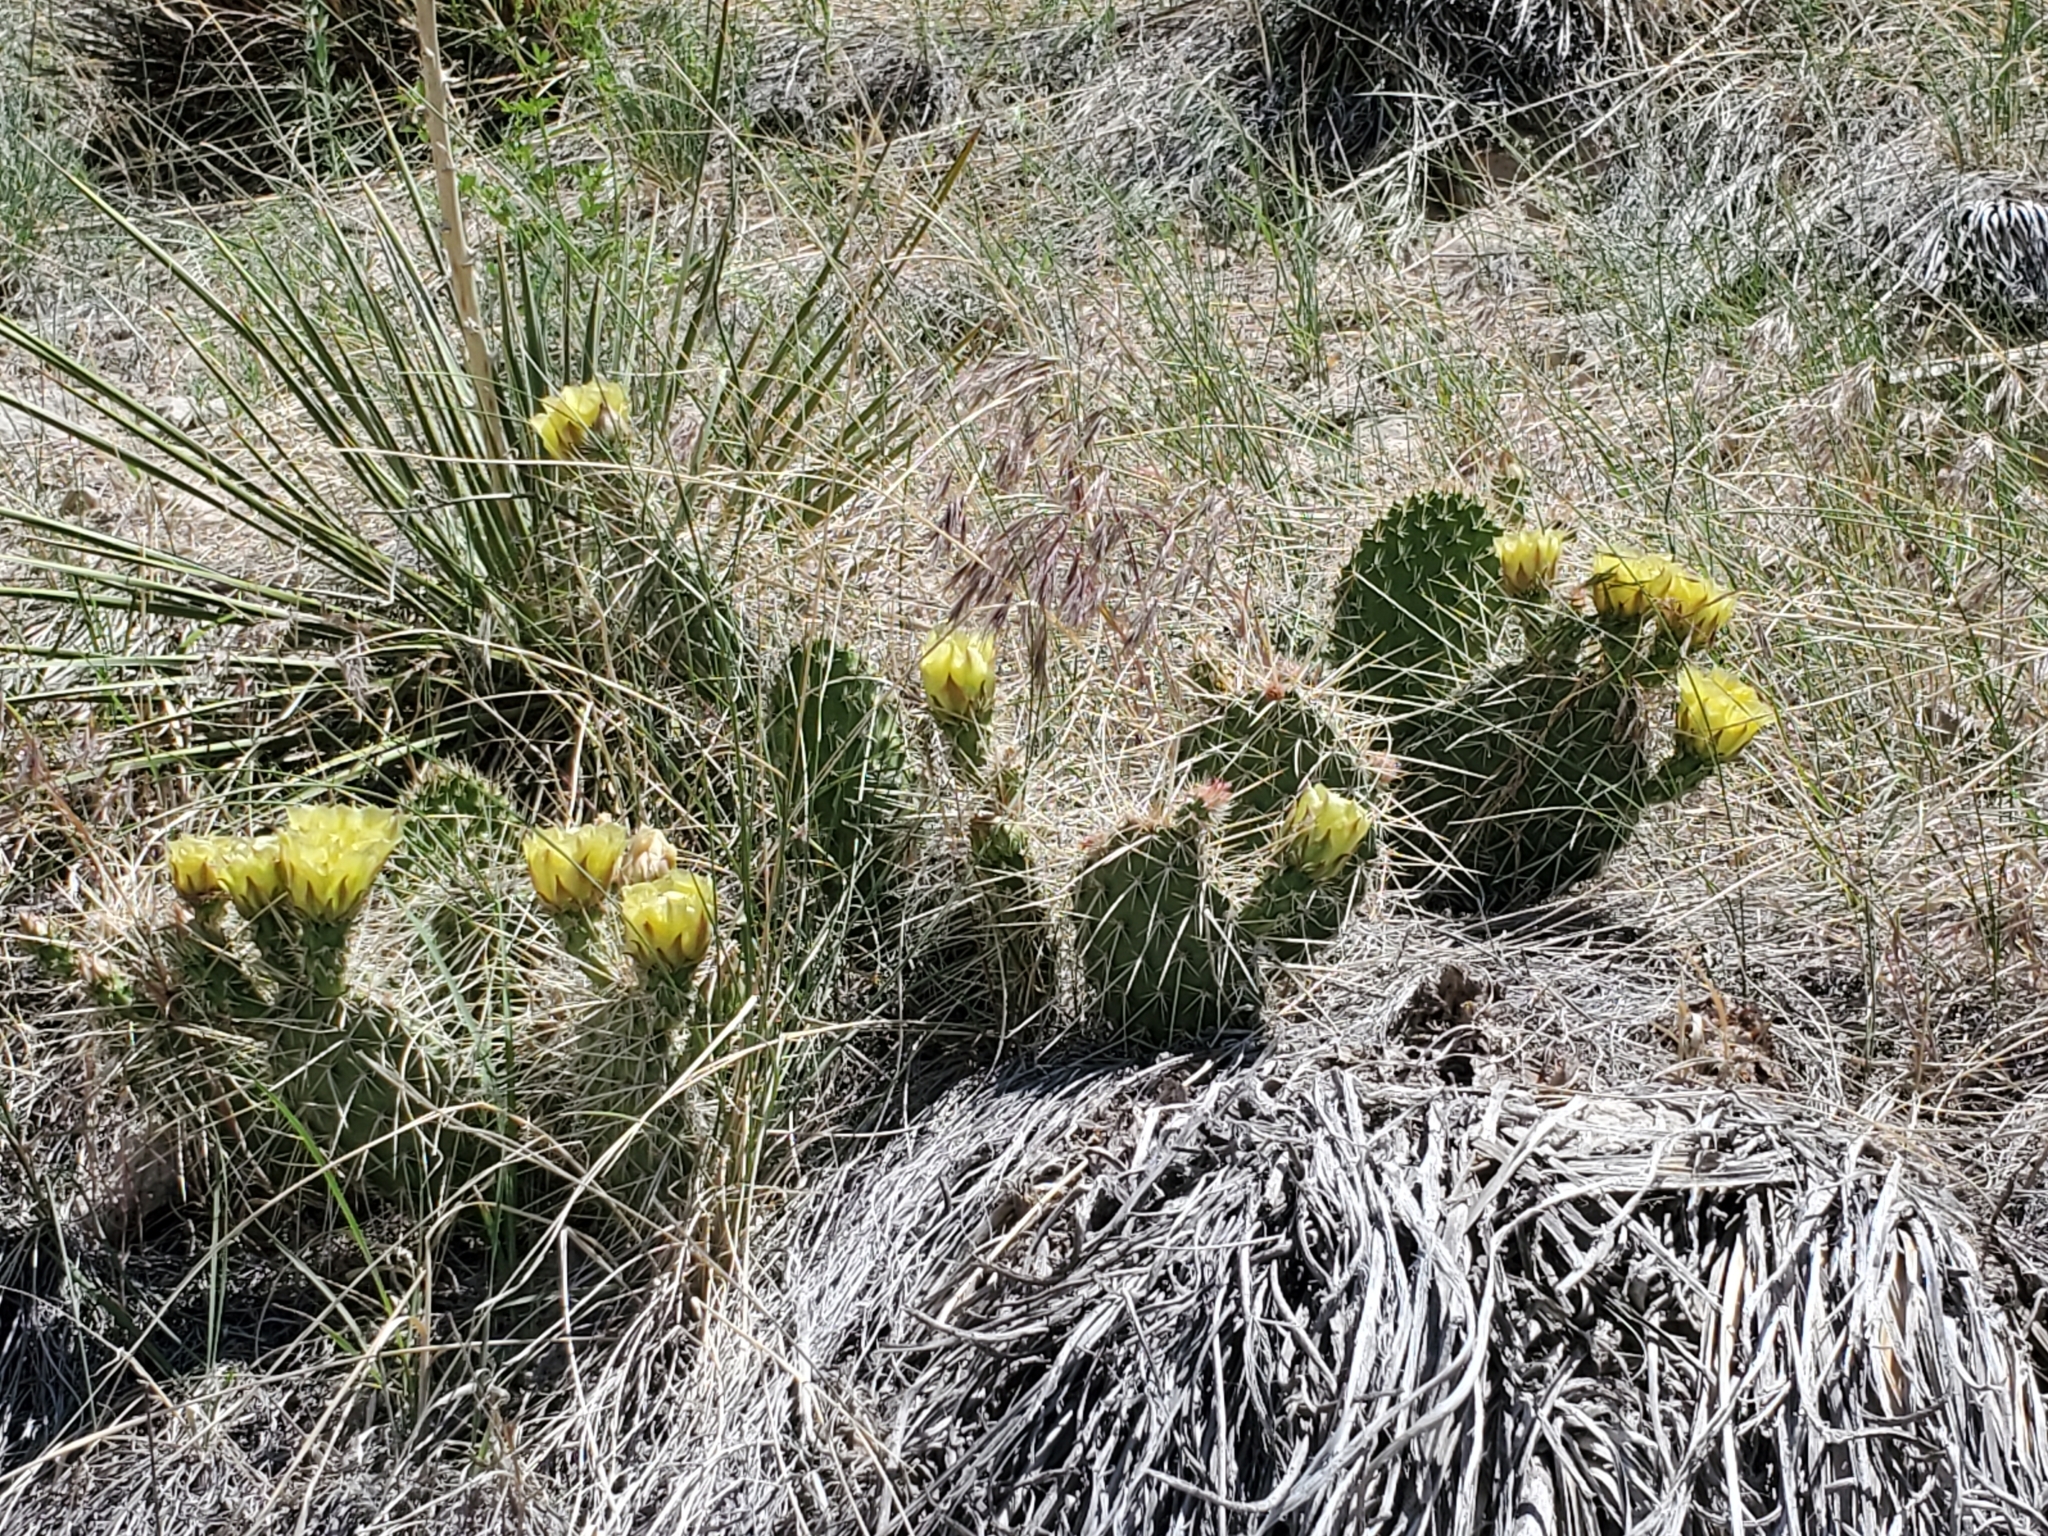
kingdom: Plantae
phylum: Tracheophyta
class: Magnoliopsida
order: Caryophyllales
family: Cactaceae
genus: Opuntia
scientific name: Opuntia polyacantha
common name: Plains prickly-pear
